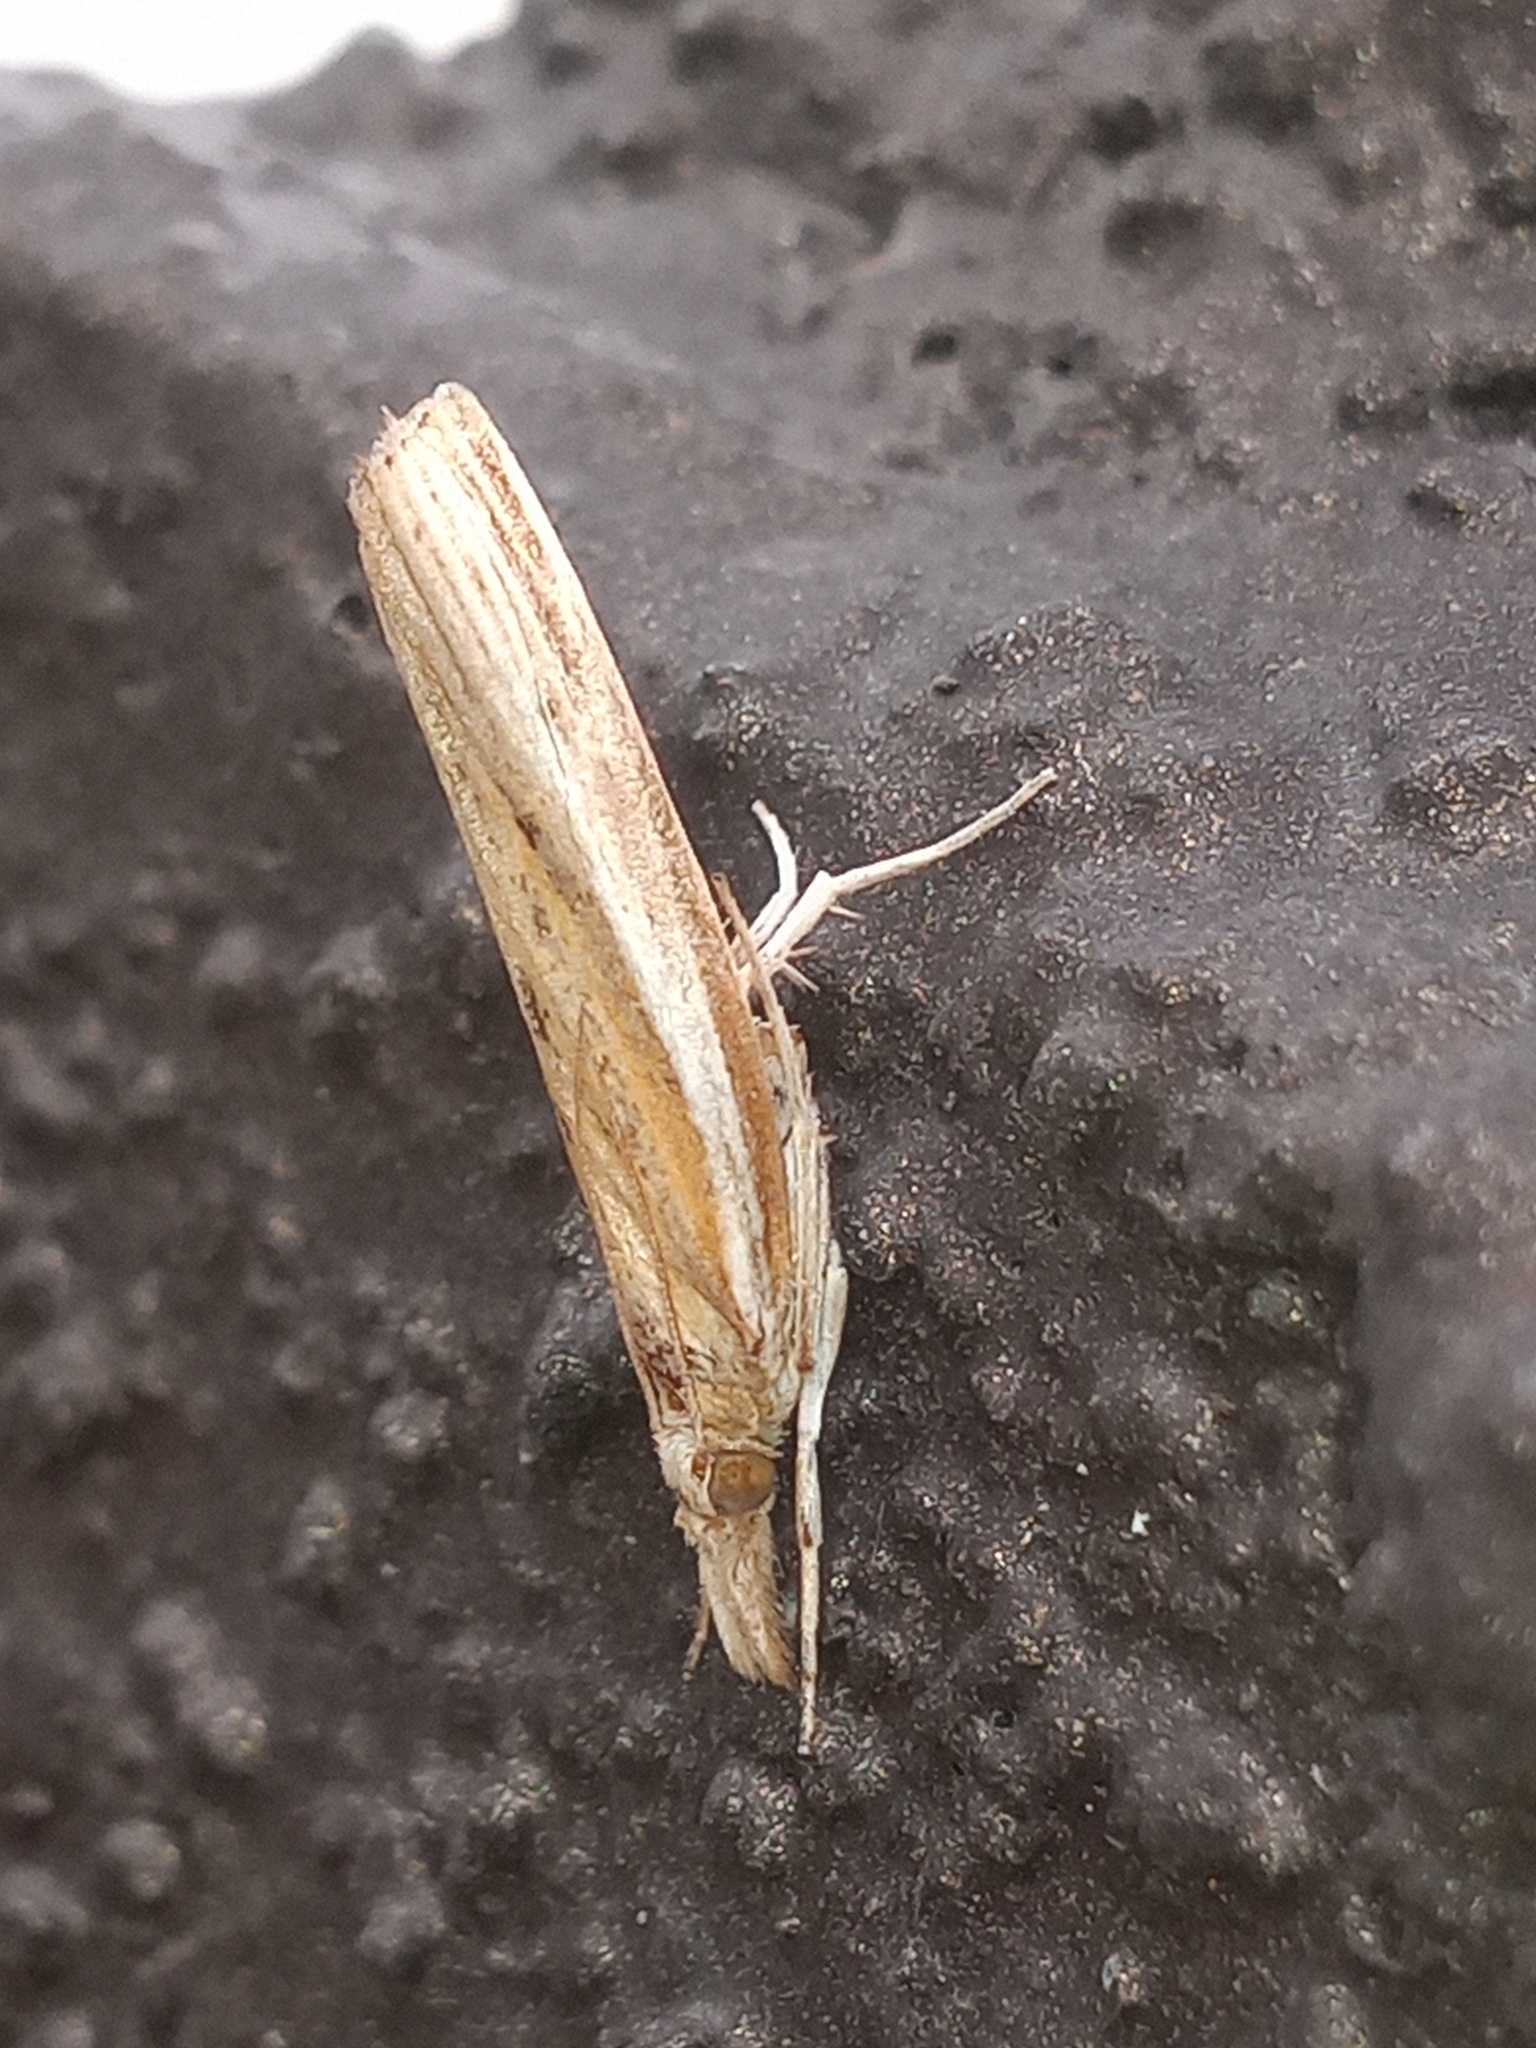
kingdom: Animalia
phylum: Arthropoda
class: Insecta
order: Lepidoptera
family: Crambidae
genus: Fissicrambus
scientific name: Fissicrambus fissiradiellus
